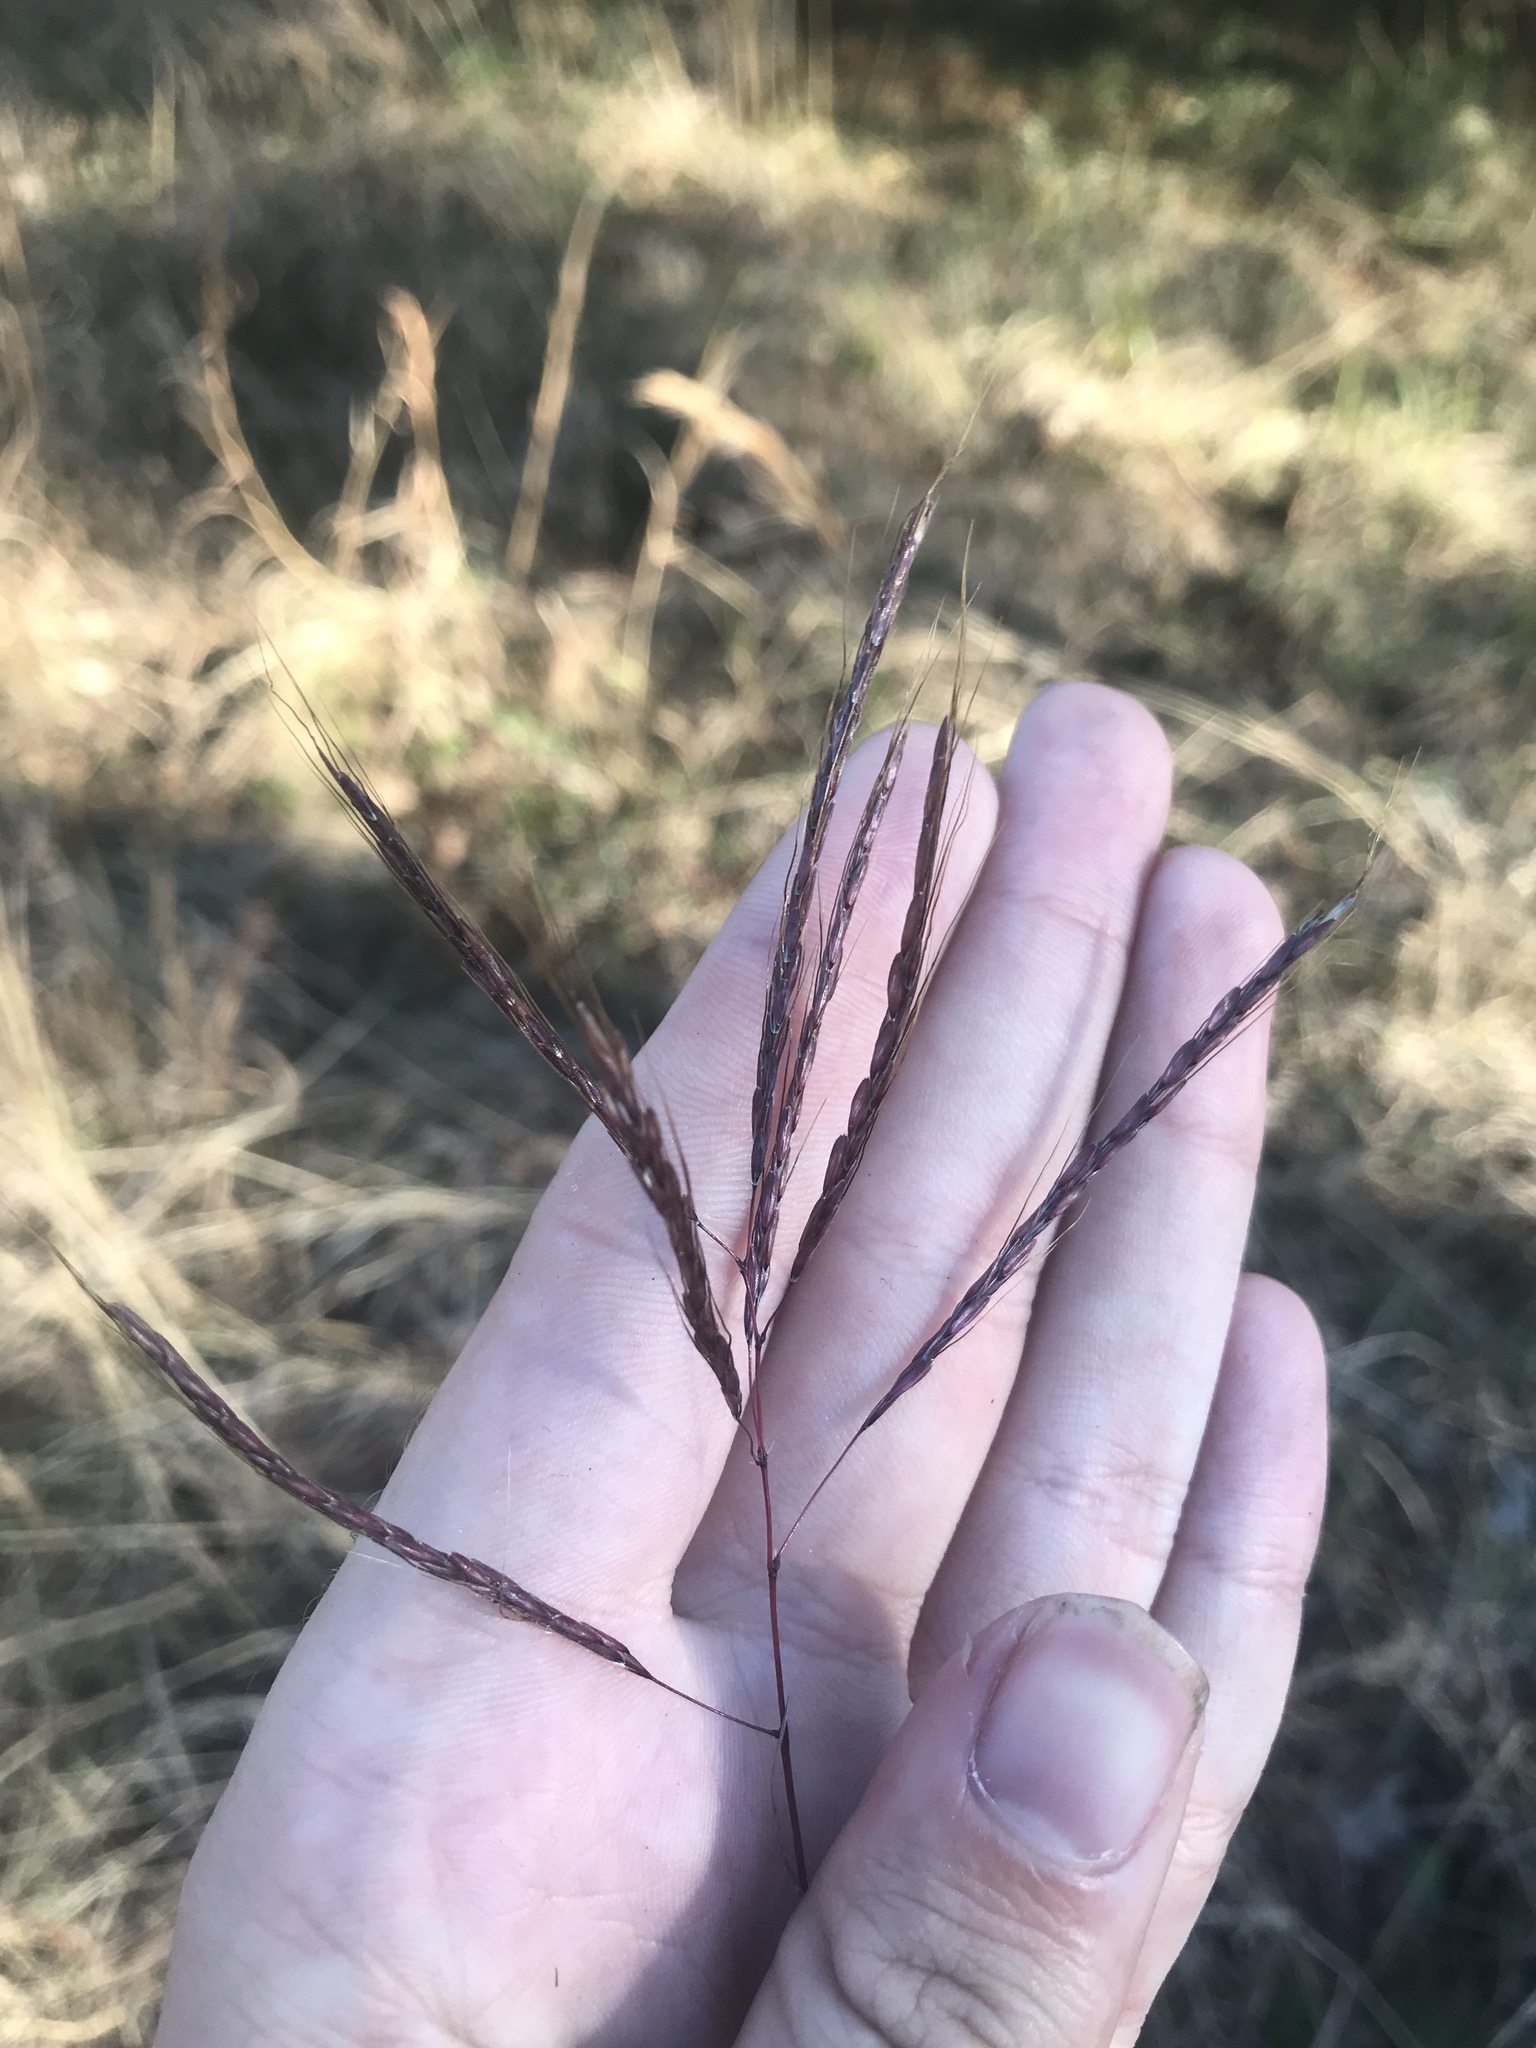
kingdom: Plantae
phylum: Tracheophyta
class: Liliopsida
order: Poales
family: Poaceae
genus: Bothriochloa
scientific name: Bothriochloa ischaemum
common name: Yellow bluestem
